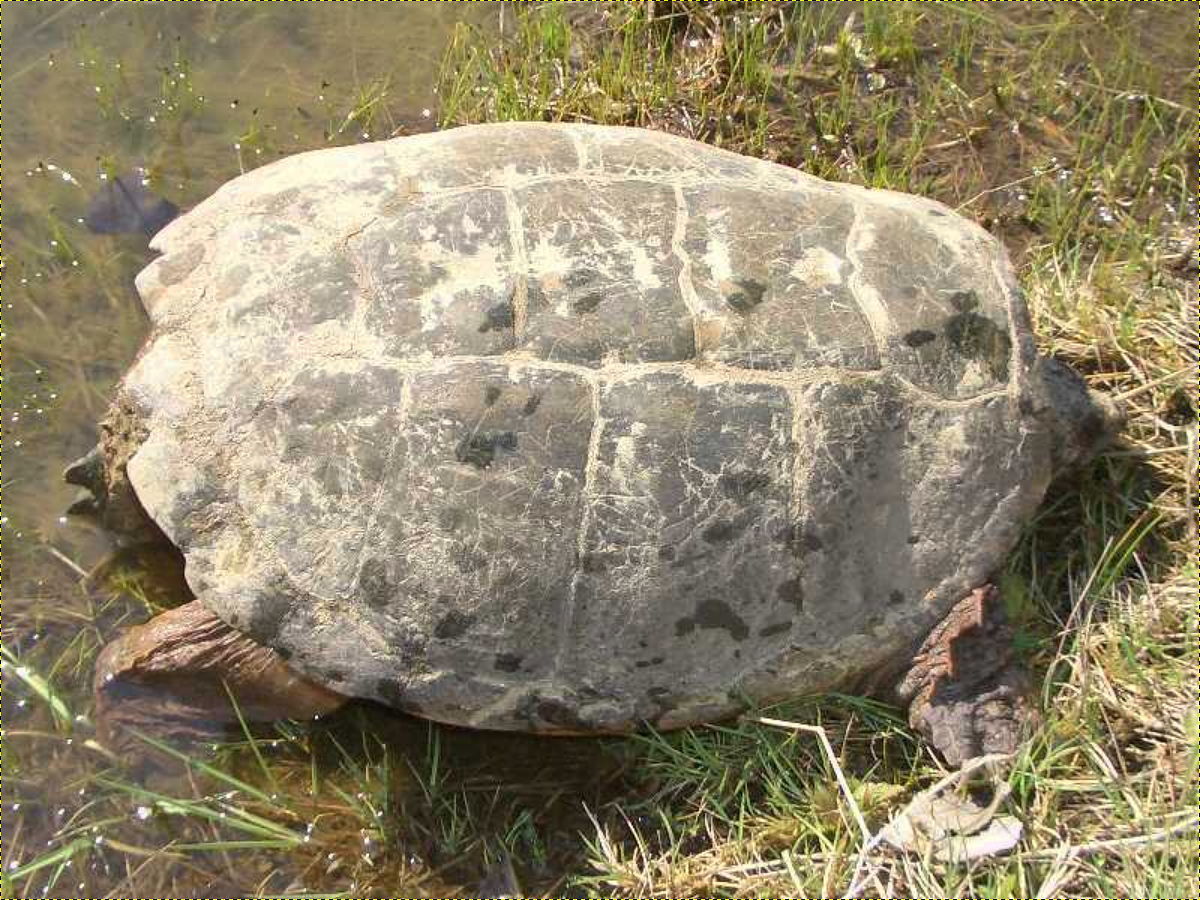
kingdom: Animalia
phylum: Chordata
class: Testudines
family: Chelydridae
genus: Chelydra
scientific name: Chelydra serpentina
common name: Common snapping turtle
